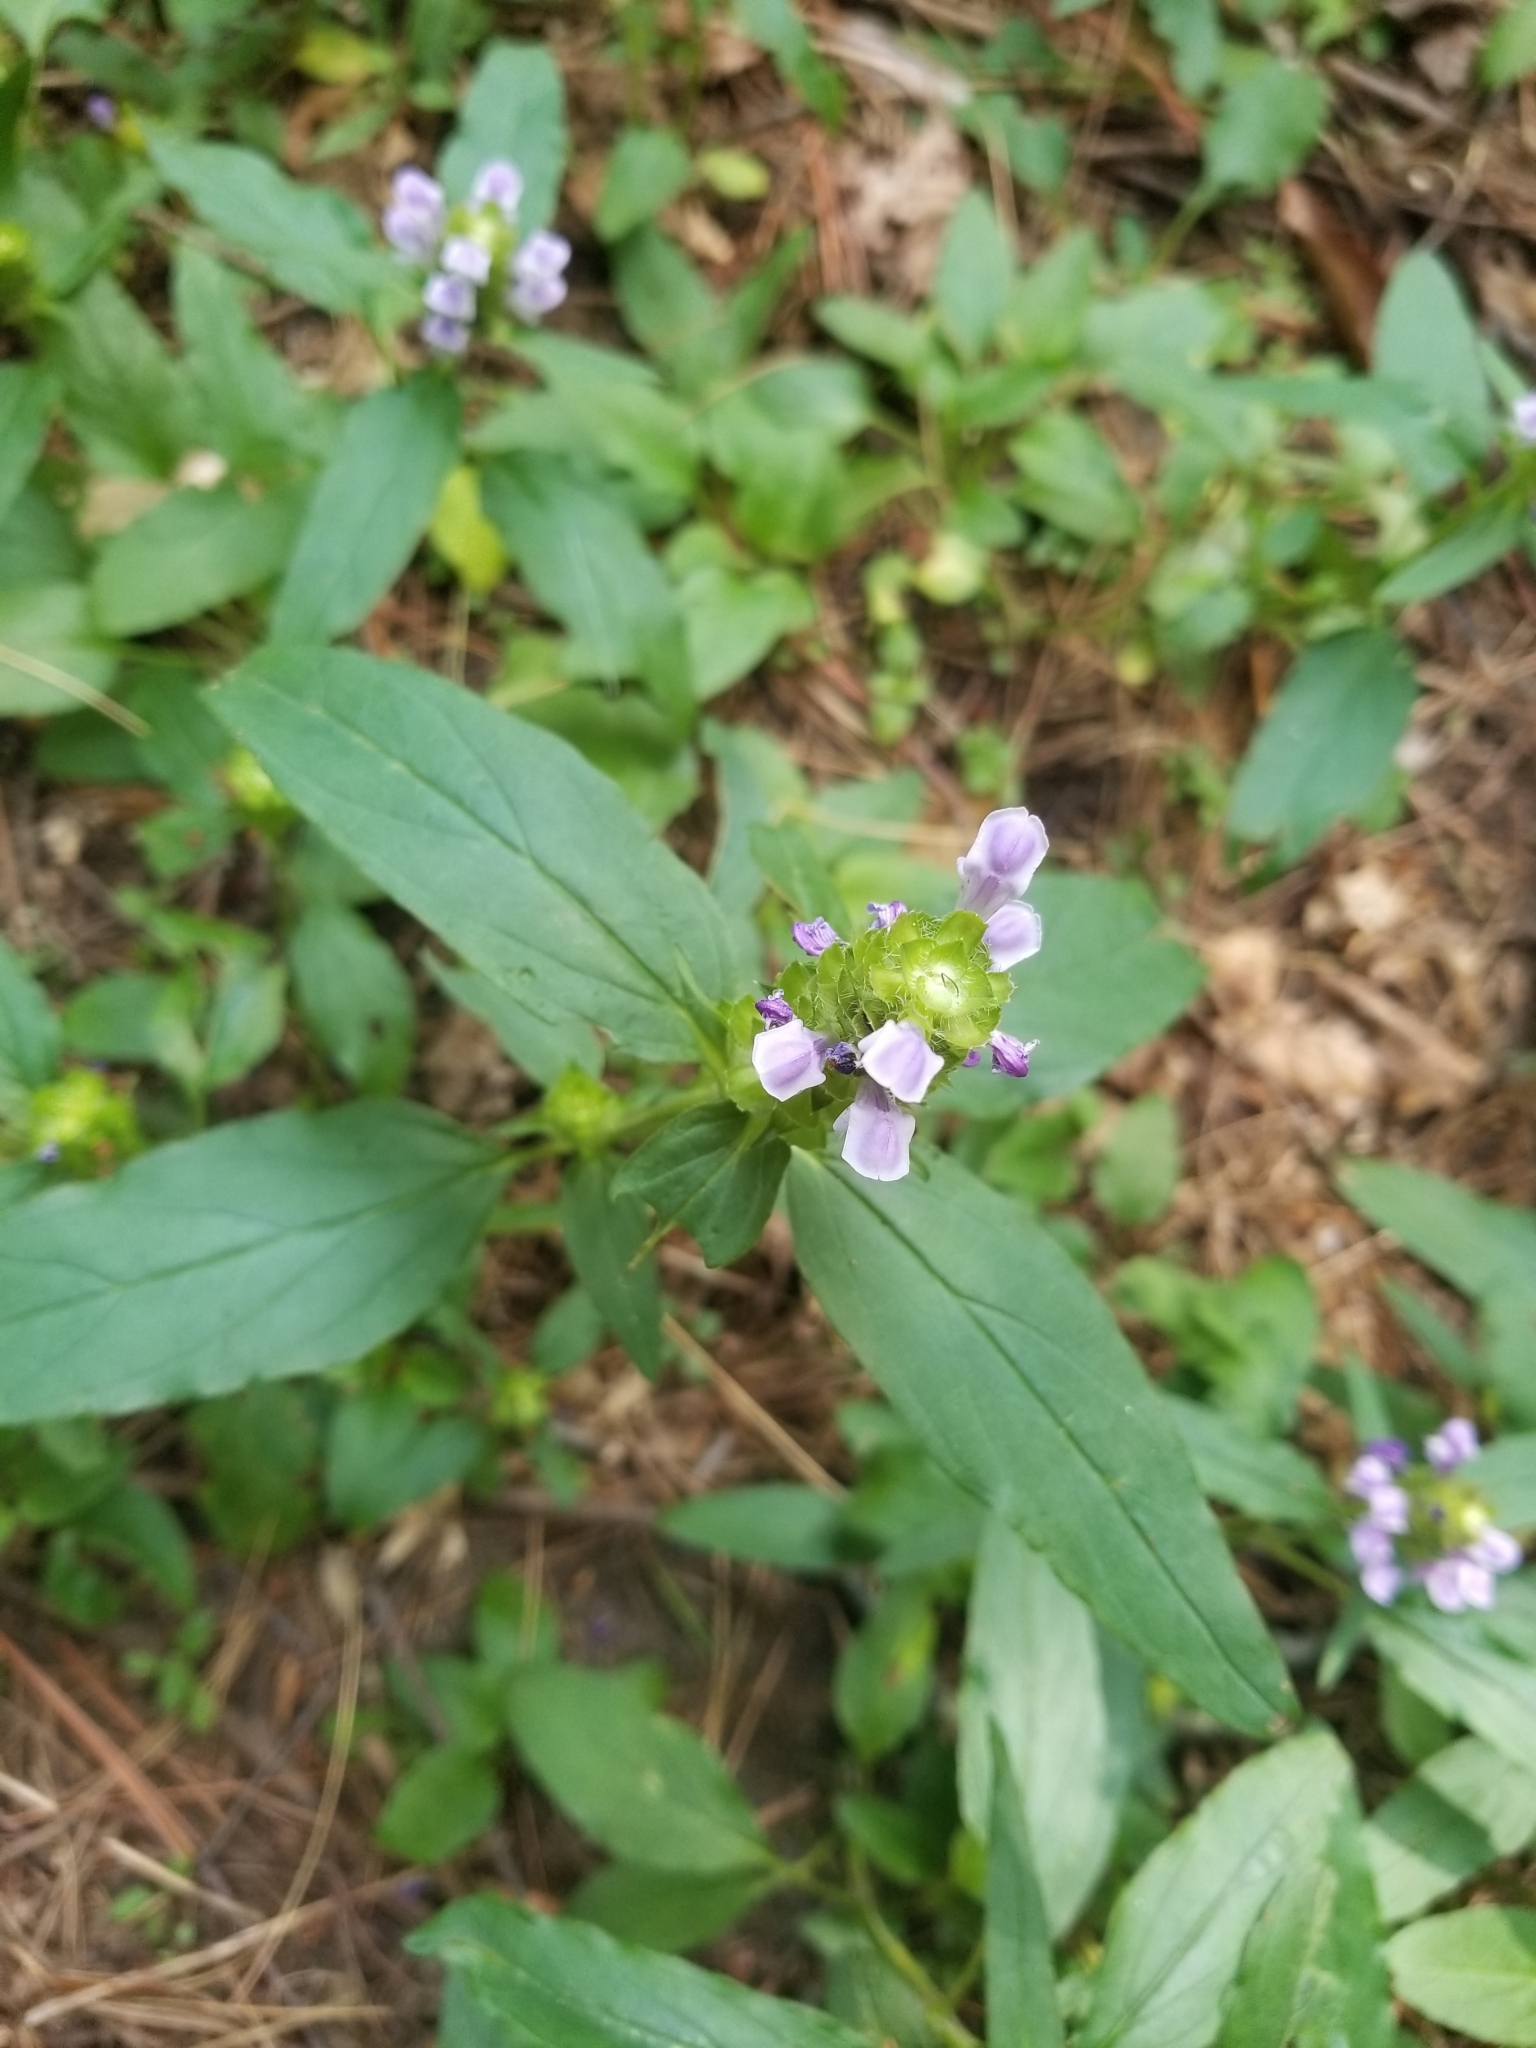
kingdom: Plantae
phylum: Tracheophyta
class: Magnoliopsida
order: Lamiales
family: Lamiaceae
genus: Prunella
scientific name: Prunella vulgaris
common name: Heal-all
